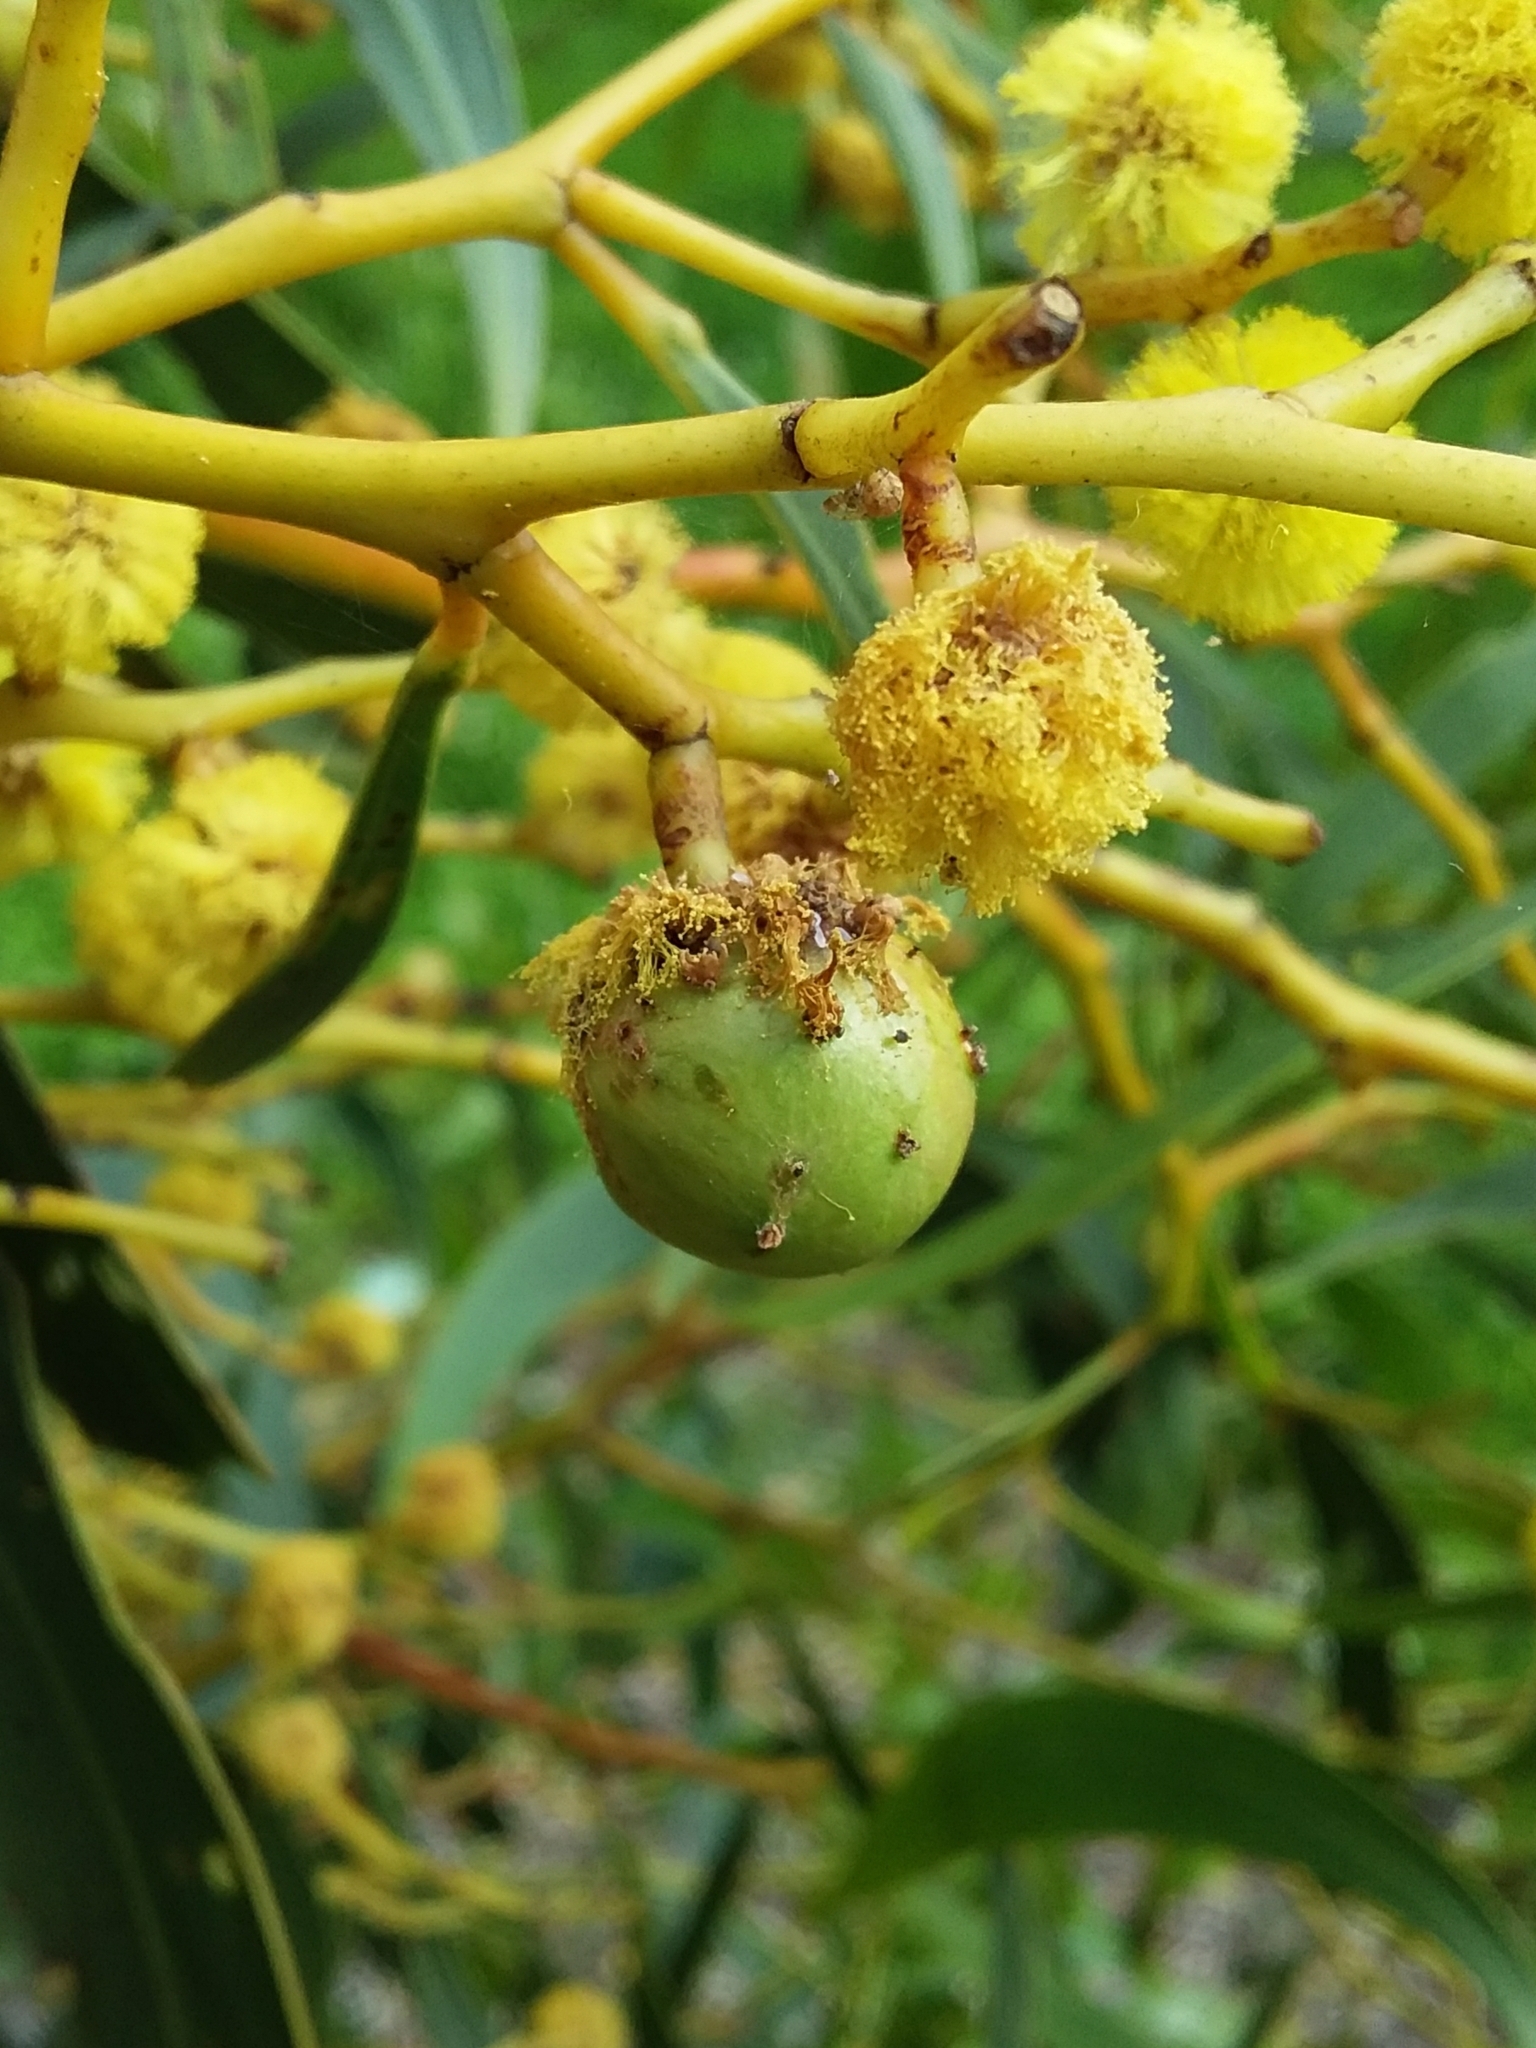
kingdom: Animalia
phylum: Arthropoda
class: Insecta
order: Hymenoptera
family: Pteromalidae
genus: Trichilogaster
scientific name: Trichilogaster signiventris
